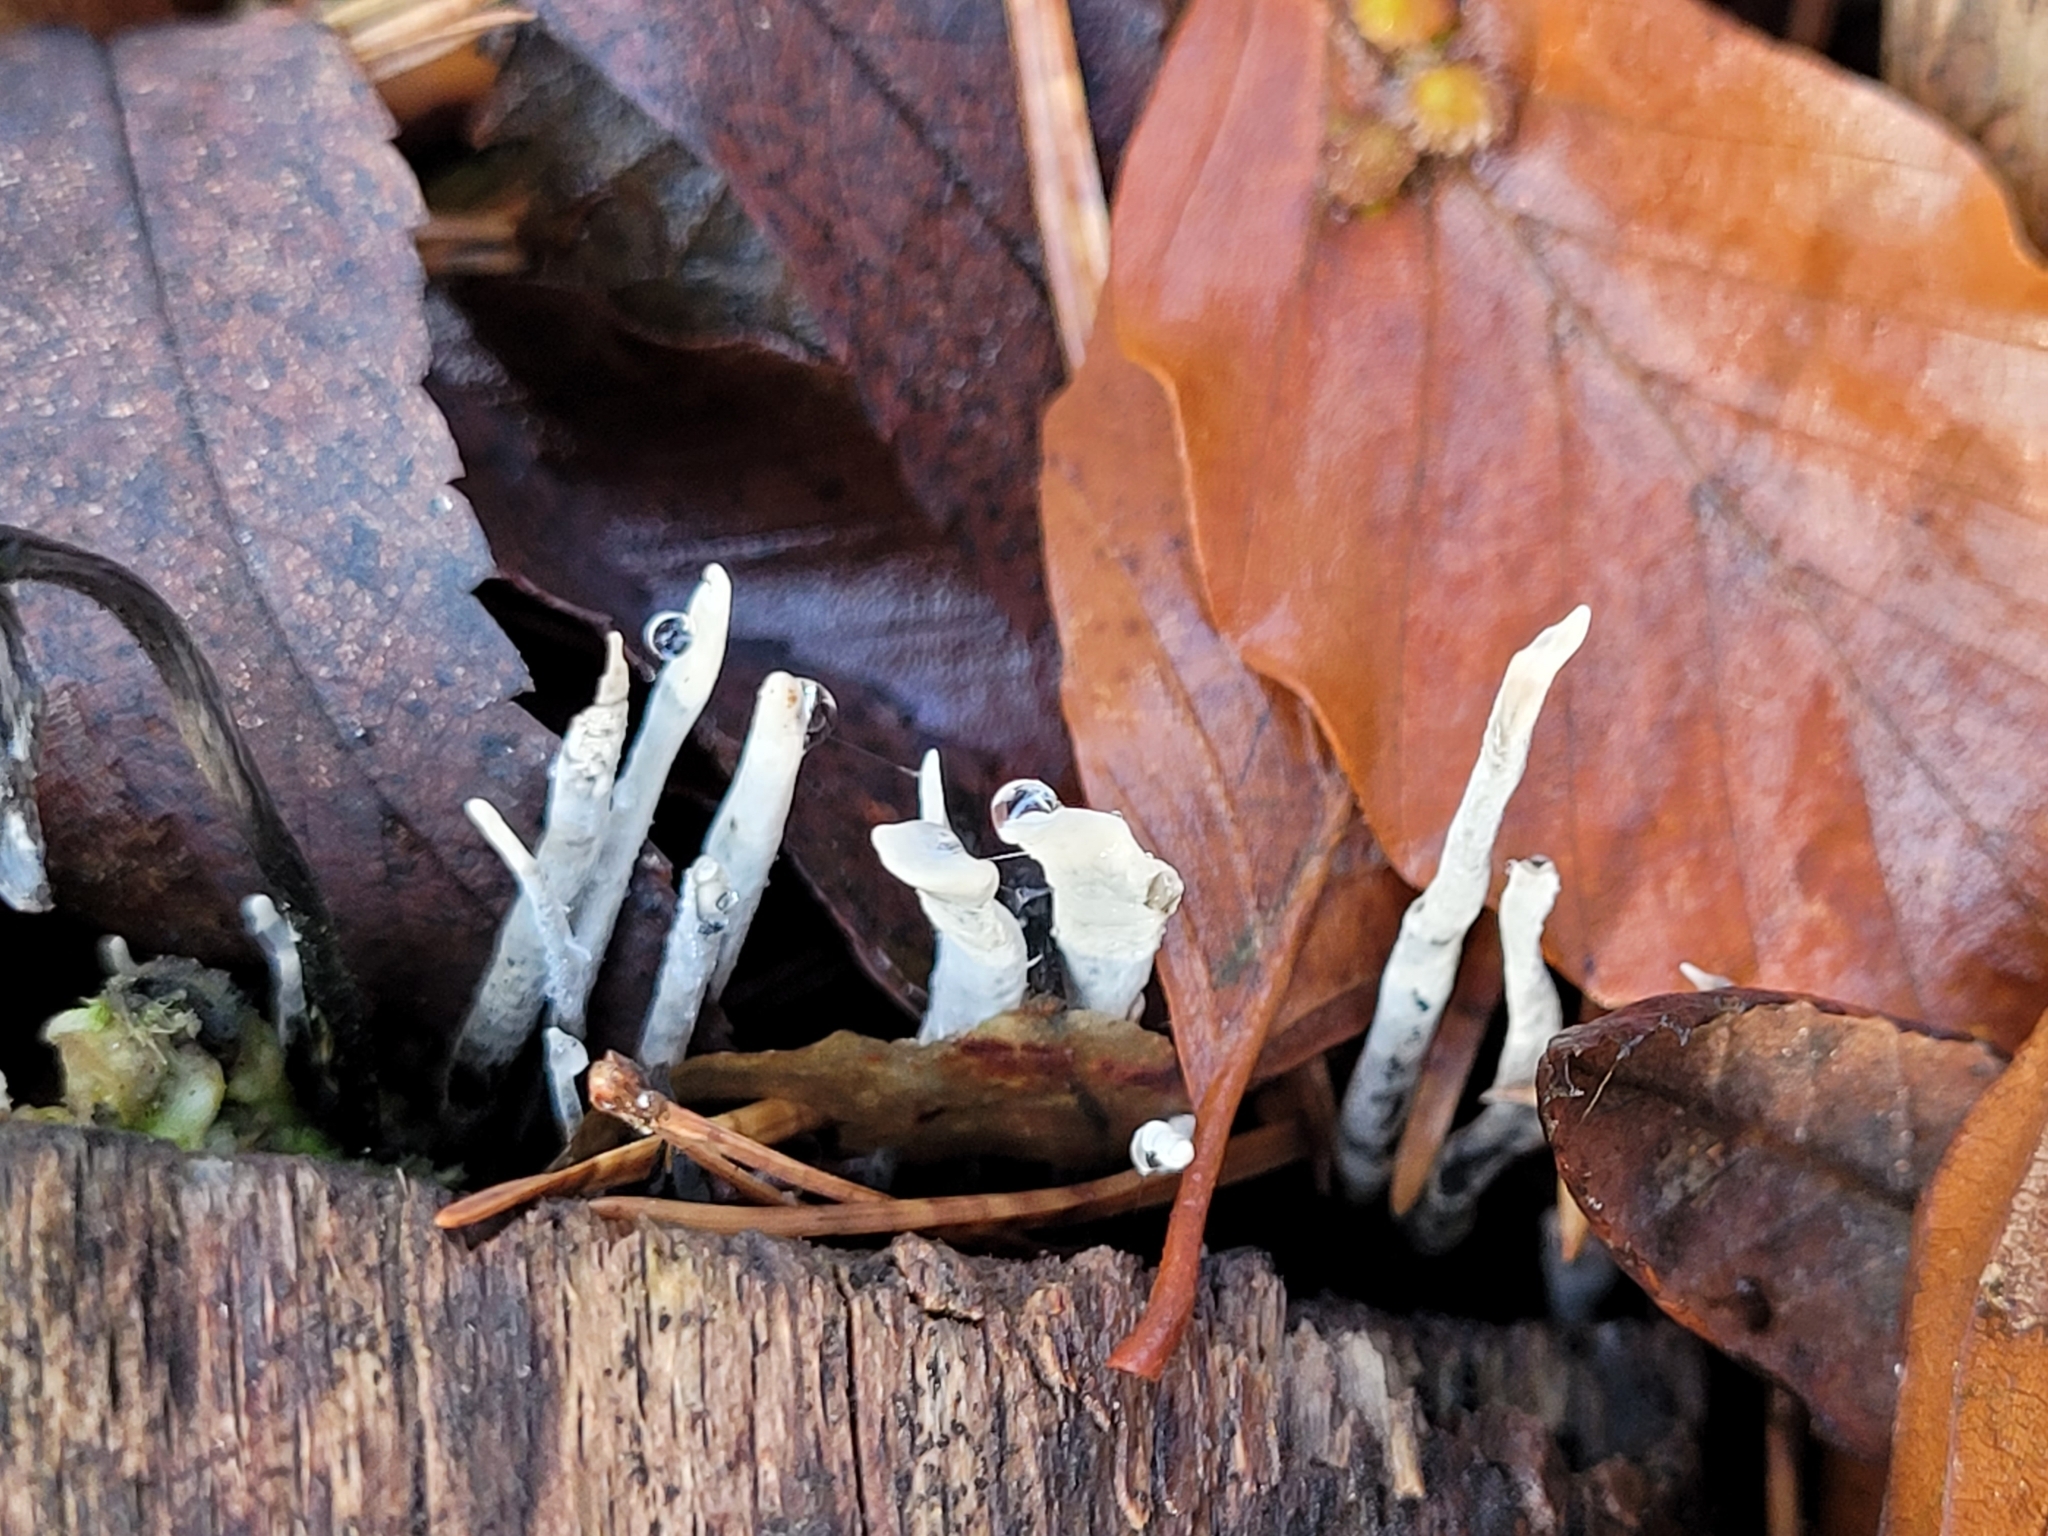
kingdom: Fungi
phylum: Ascomycota
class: Sordariomycetes
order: Xylariales
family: Xylariaceae
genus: Xylaria
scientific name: Xylaria hypoxylon
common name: Candle-snuff fungus
